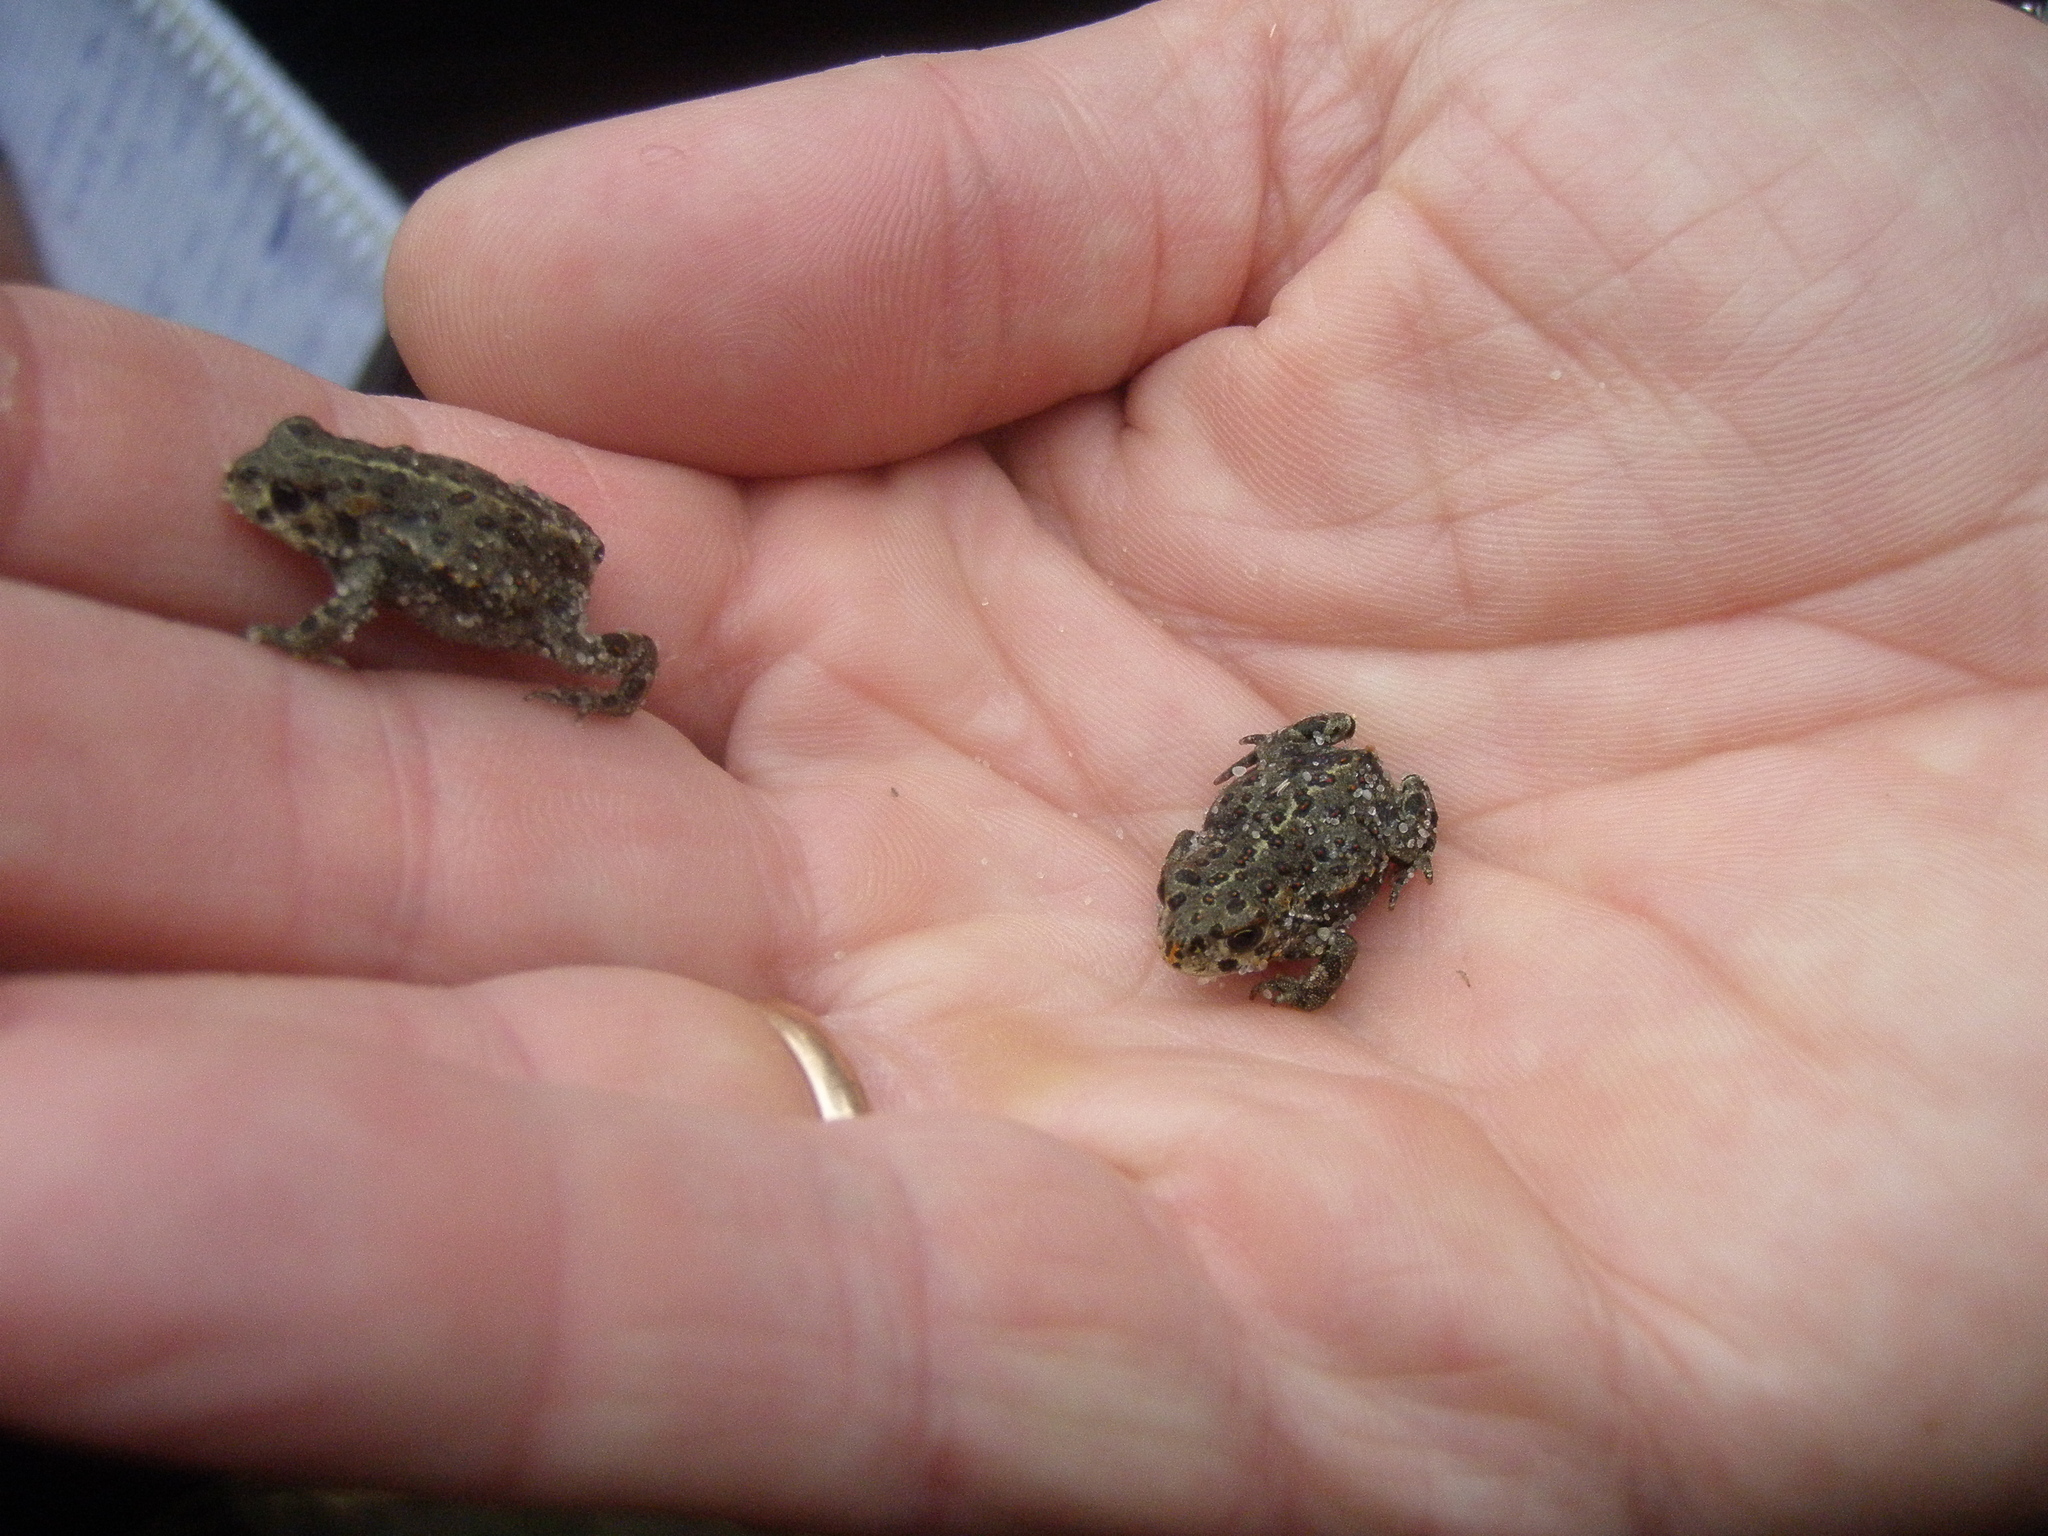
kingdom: Animalia
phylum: Chordata
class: Amphibia
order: Anura
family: Bufonidae
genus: Epidalea
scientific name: Epidalea calamita
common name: Natterjack toad
